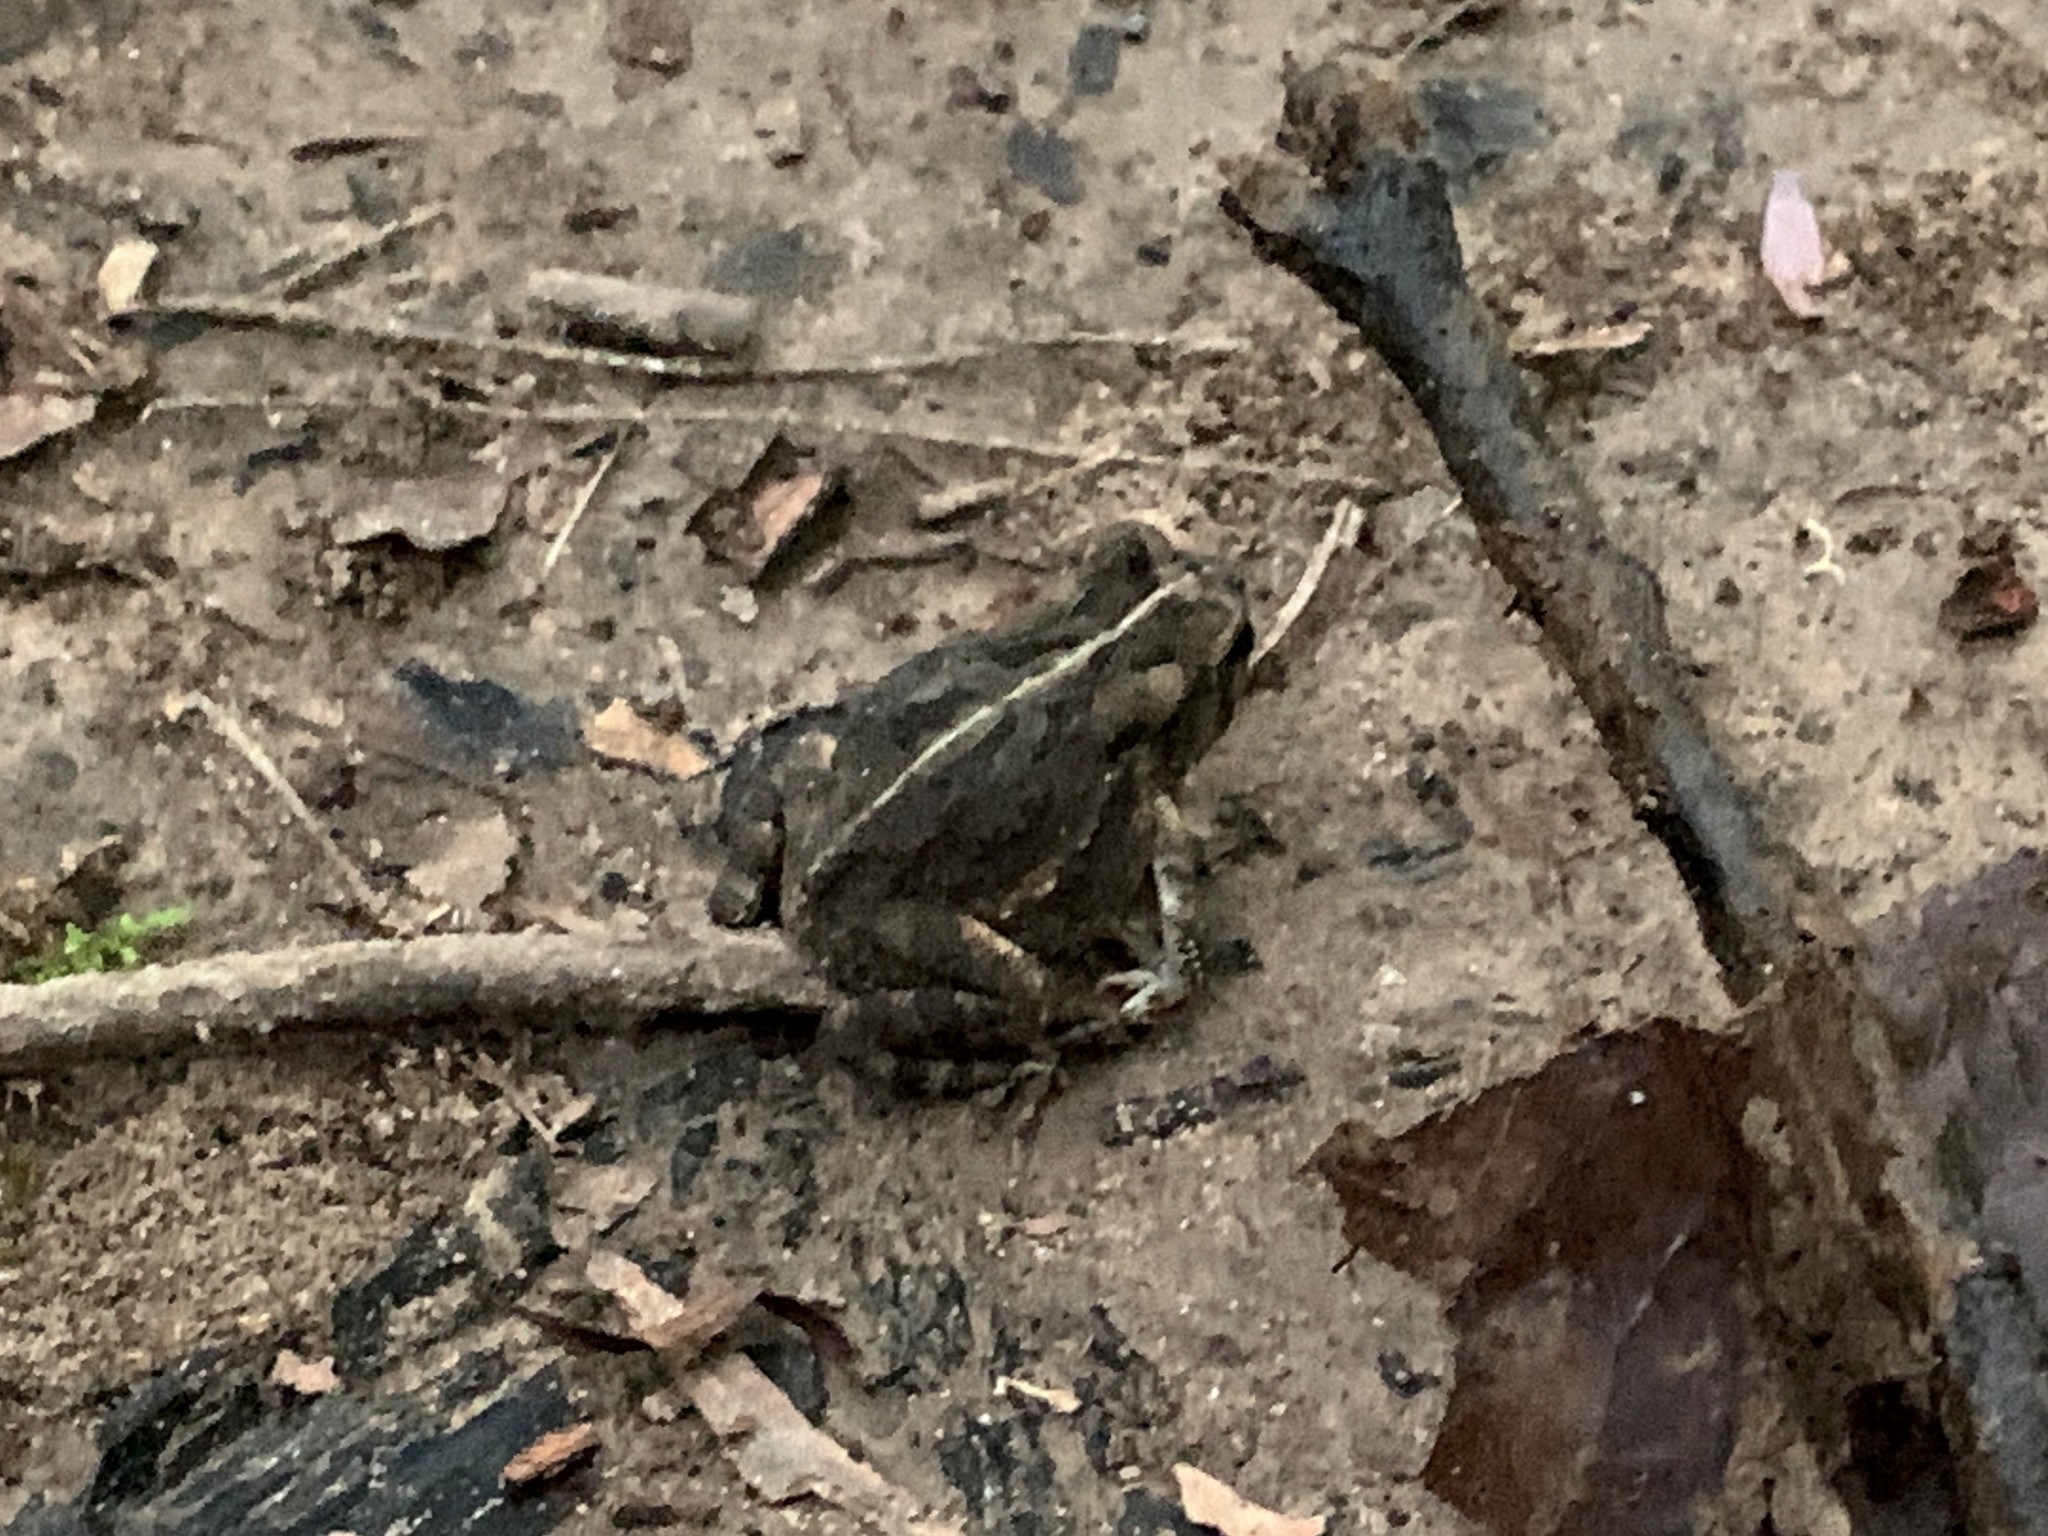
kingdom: Animalia
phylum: Chordata
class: Amphibia
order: Anura
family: Bufonidae
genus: Anaxyrus
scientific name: Anaxyrus fowleri
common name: Fowler's toad
